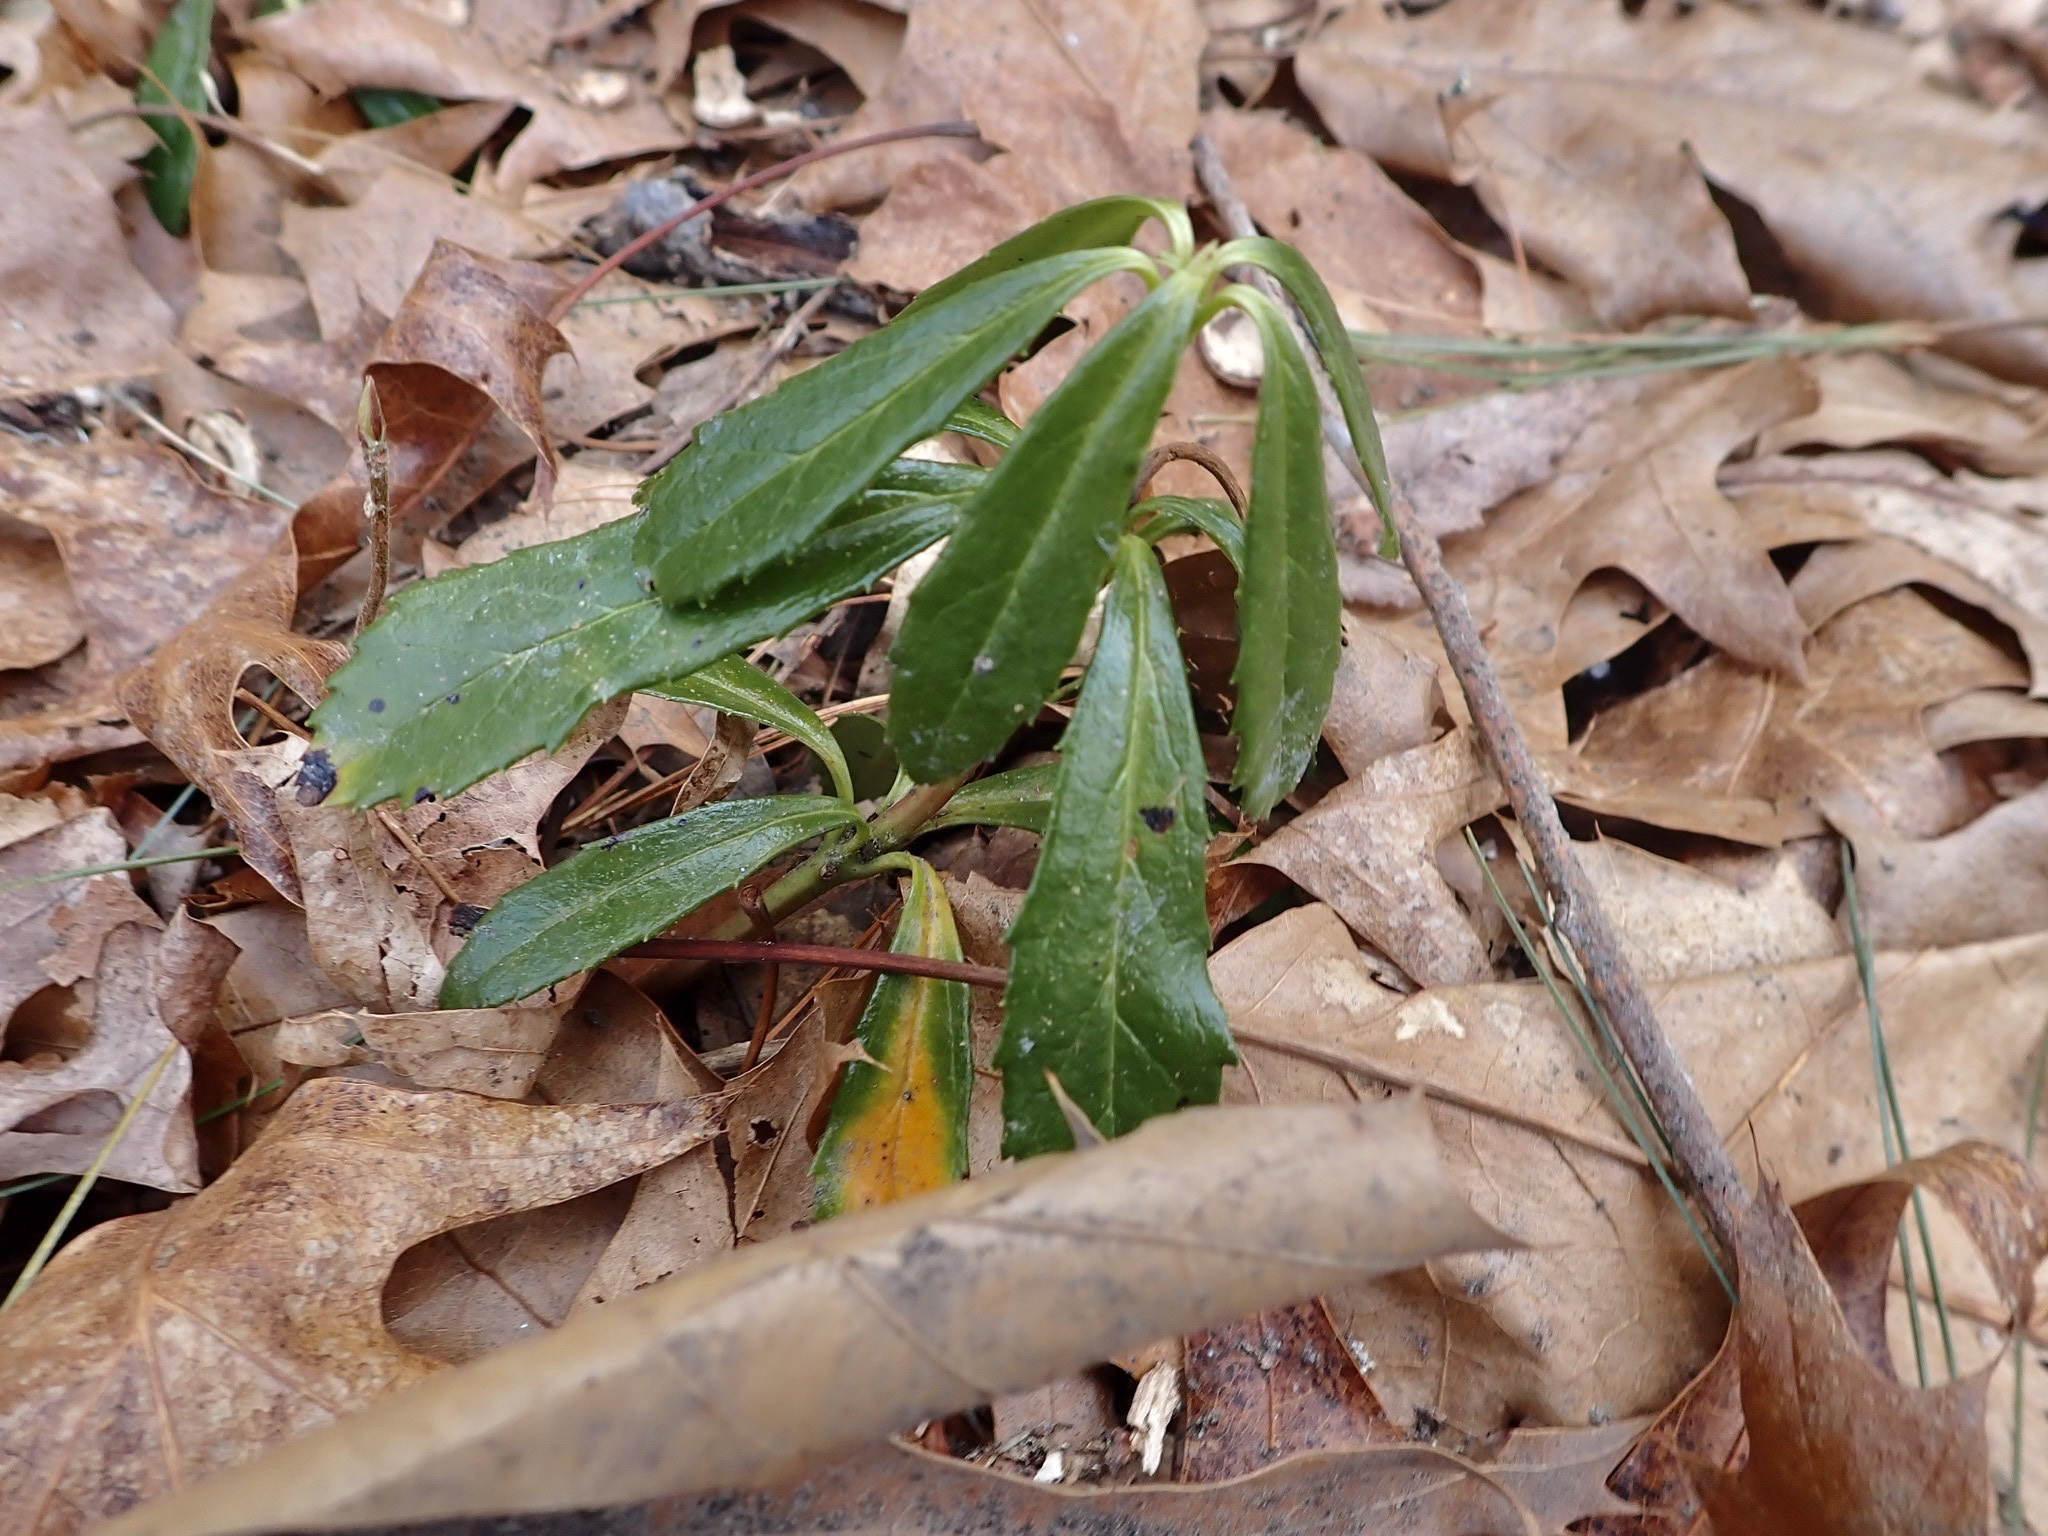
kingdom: Plantae
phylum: Tracheophyta
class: Magnoliopsida
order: Ericales
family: Ericaceae
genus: Chimaphila
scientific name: Chimaphila umbellata
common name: Pipsissewa
